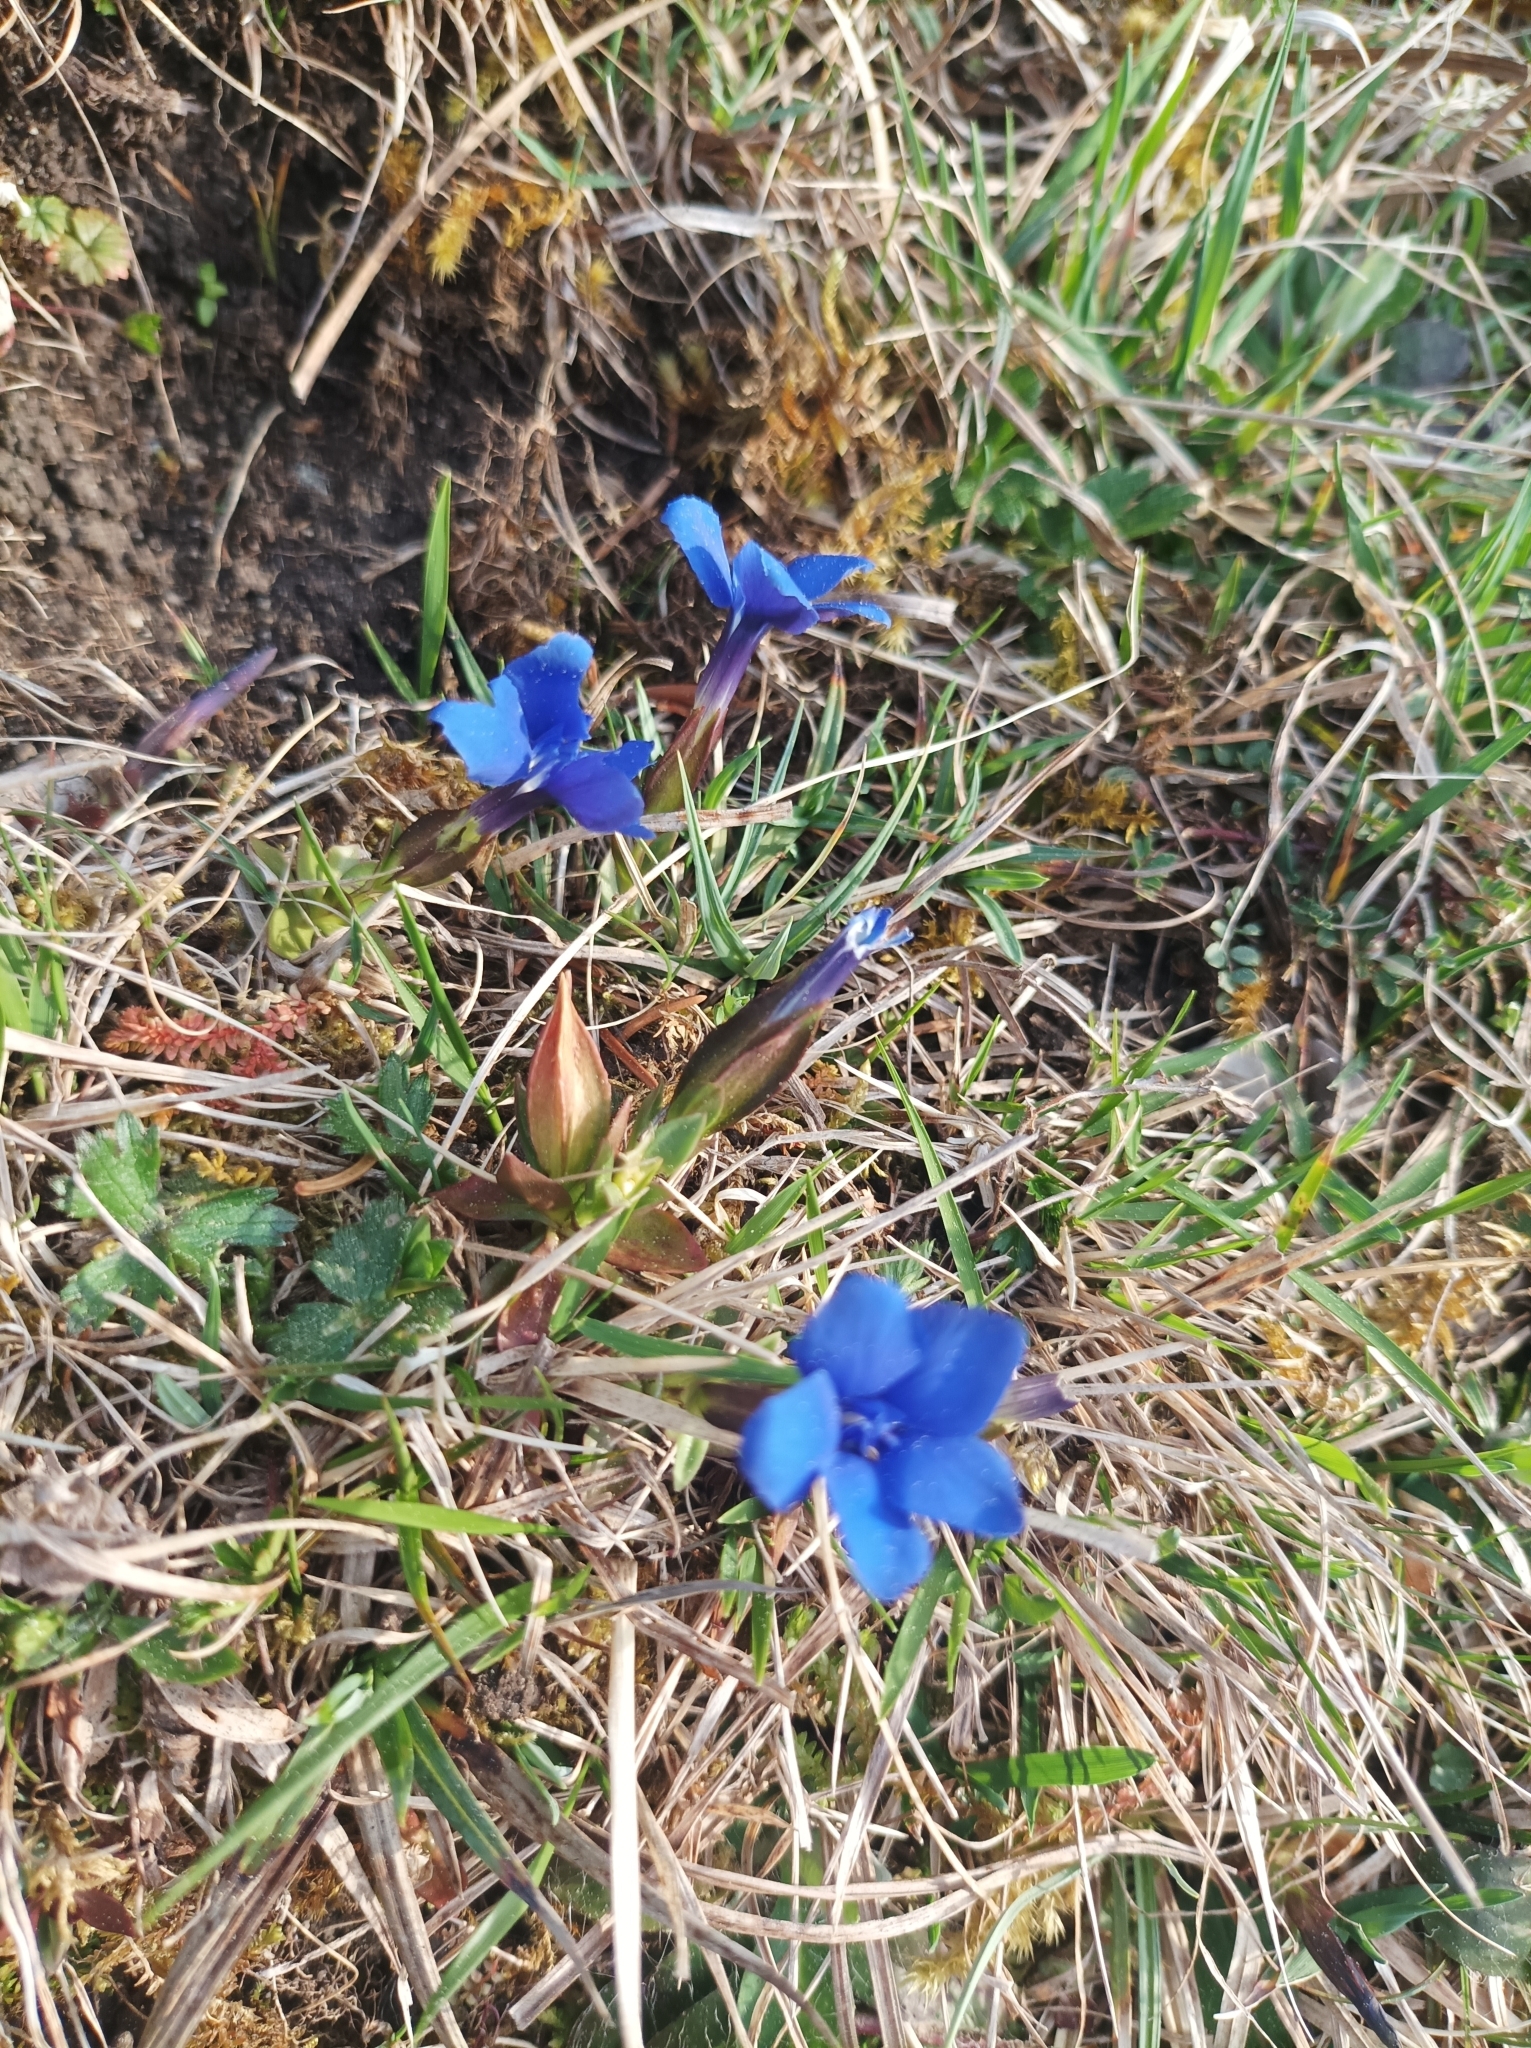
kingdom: Plantae
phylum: Tracheophyta
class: Magnoliopsida
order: Gentianales
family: Gentianaceae
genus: Gentiana
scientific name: Gentiana verna
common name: Spring gentian
